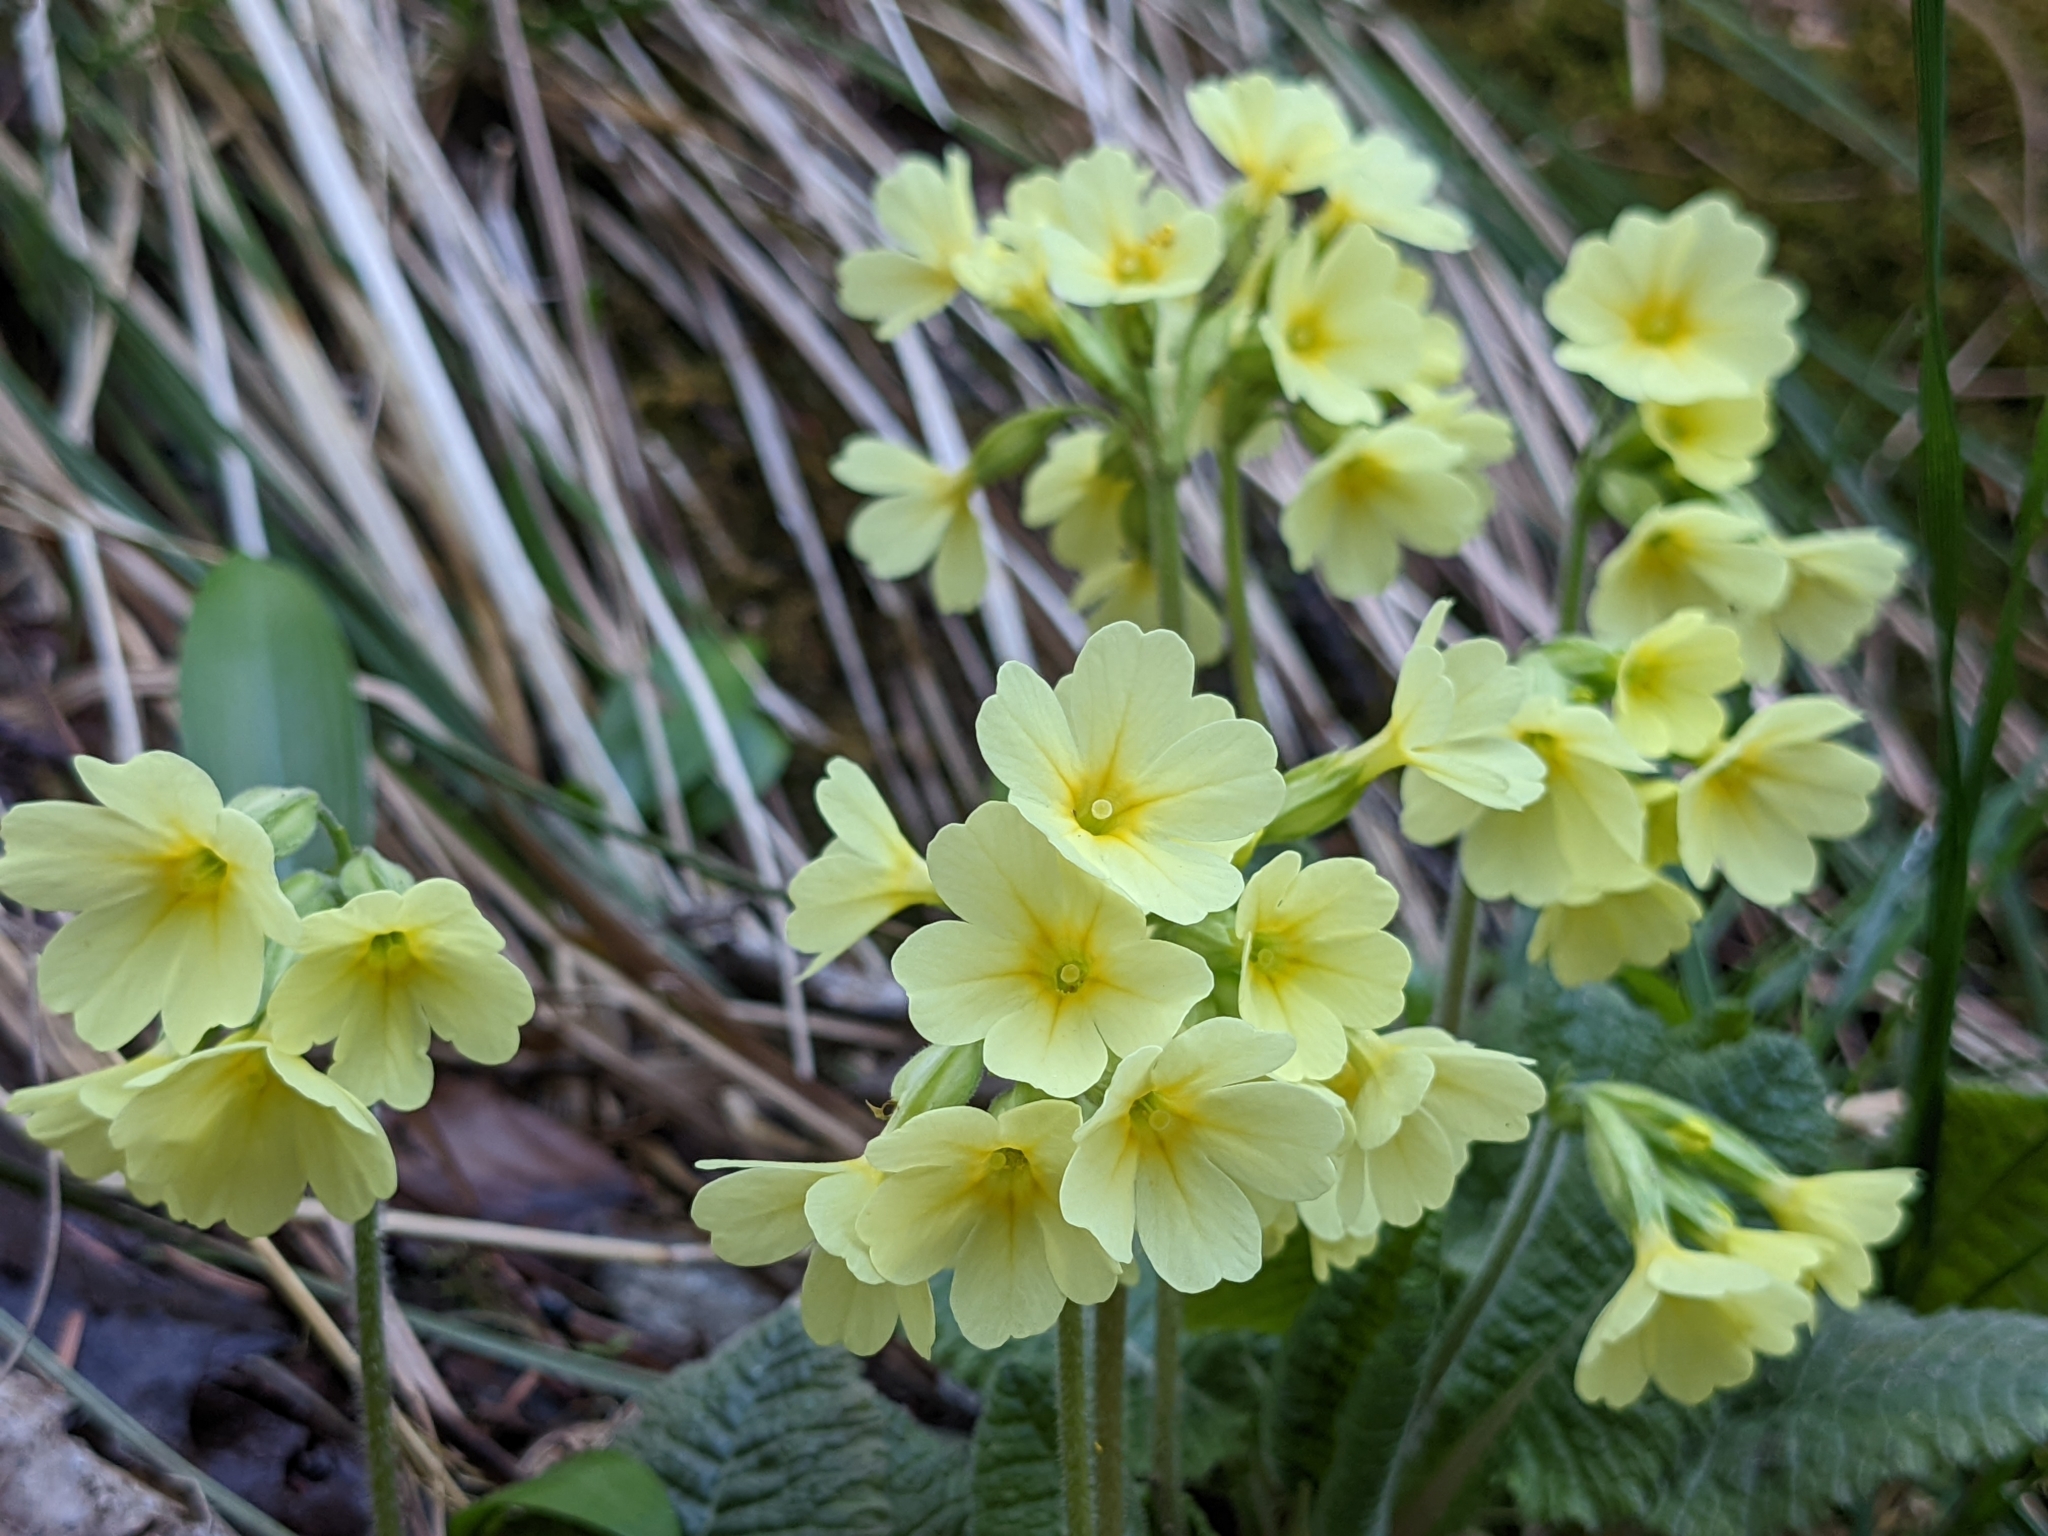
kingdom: Plantae
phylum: Tracheophyta
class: Magnoliopsida
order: Ericales
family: Primulaceae
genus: Primula
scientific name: Primula elatior
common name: Oxlip
